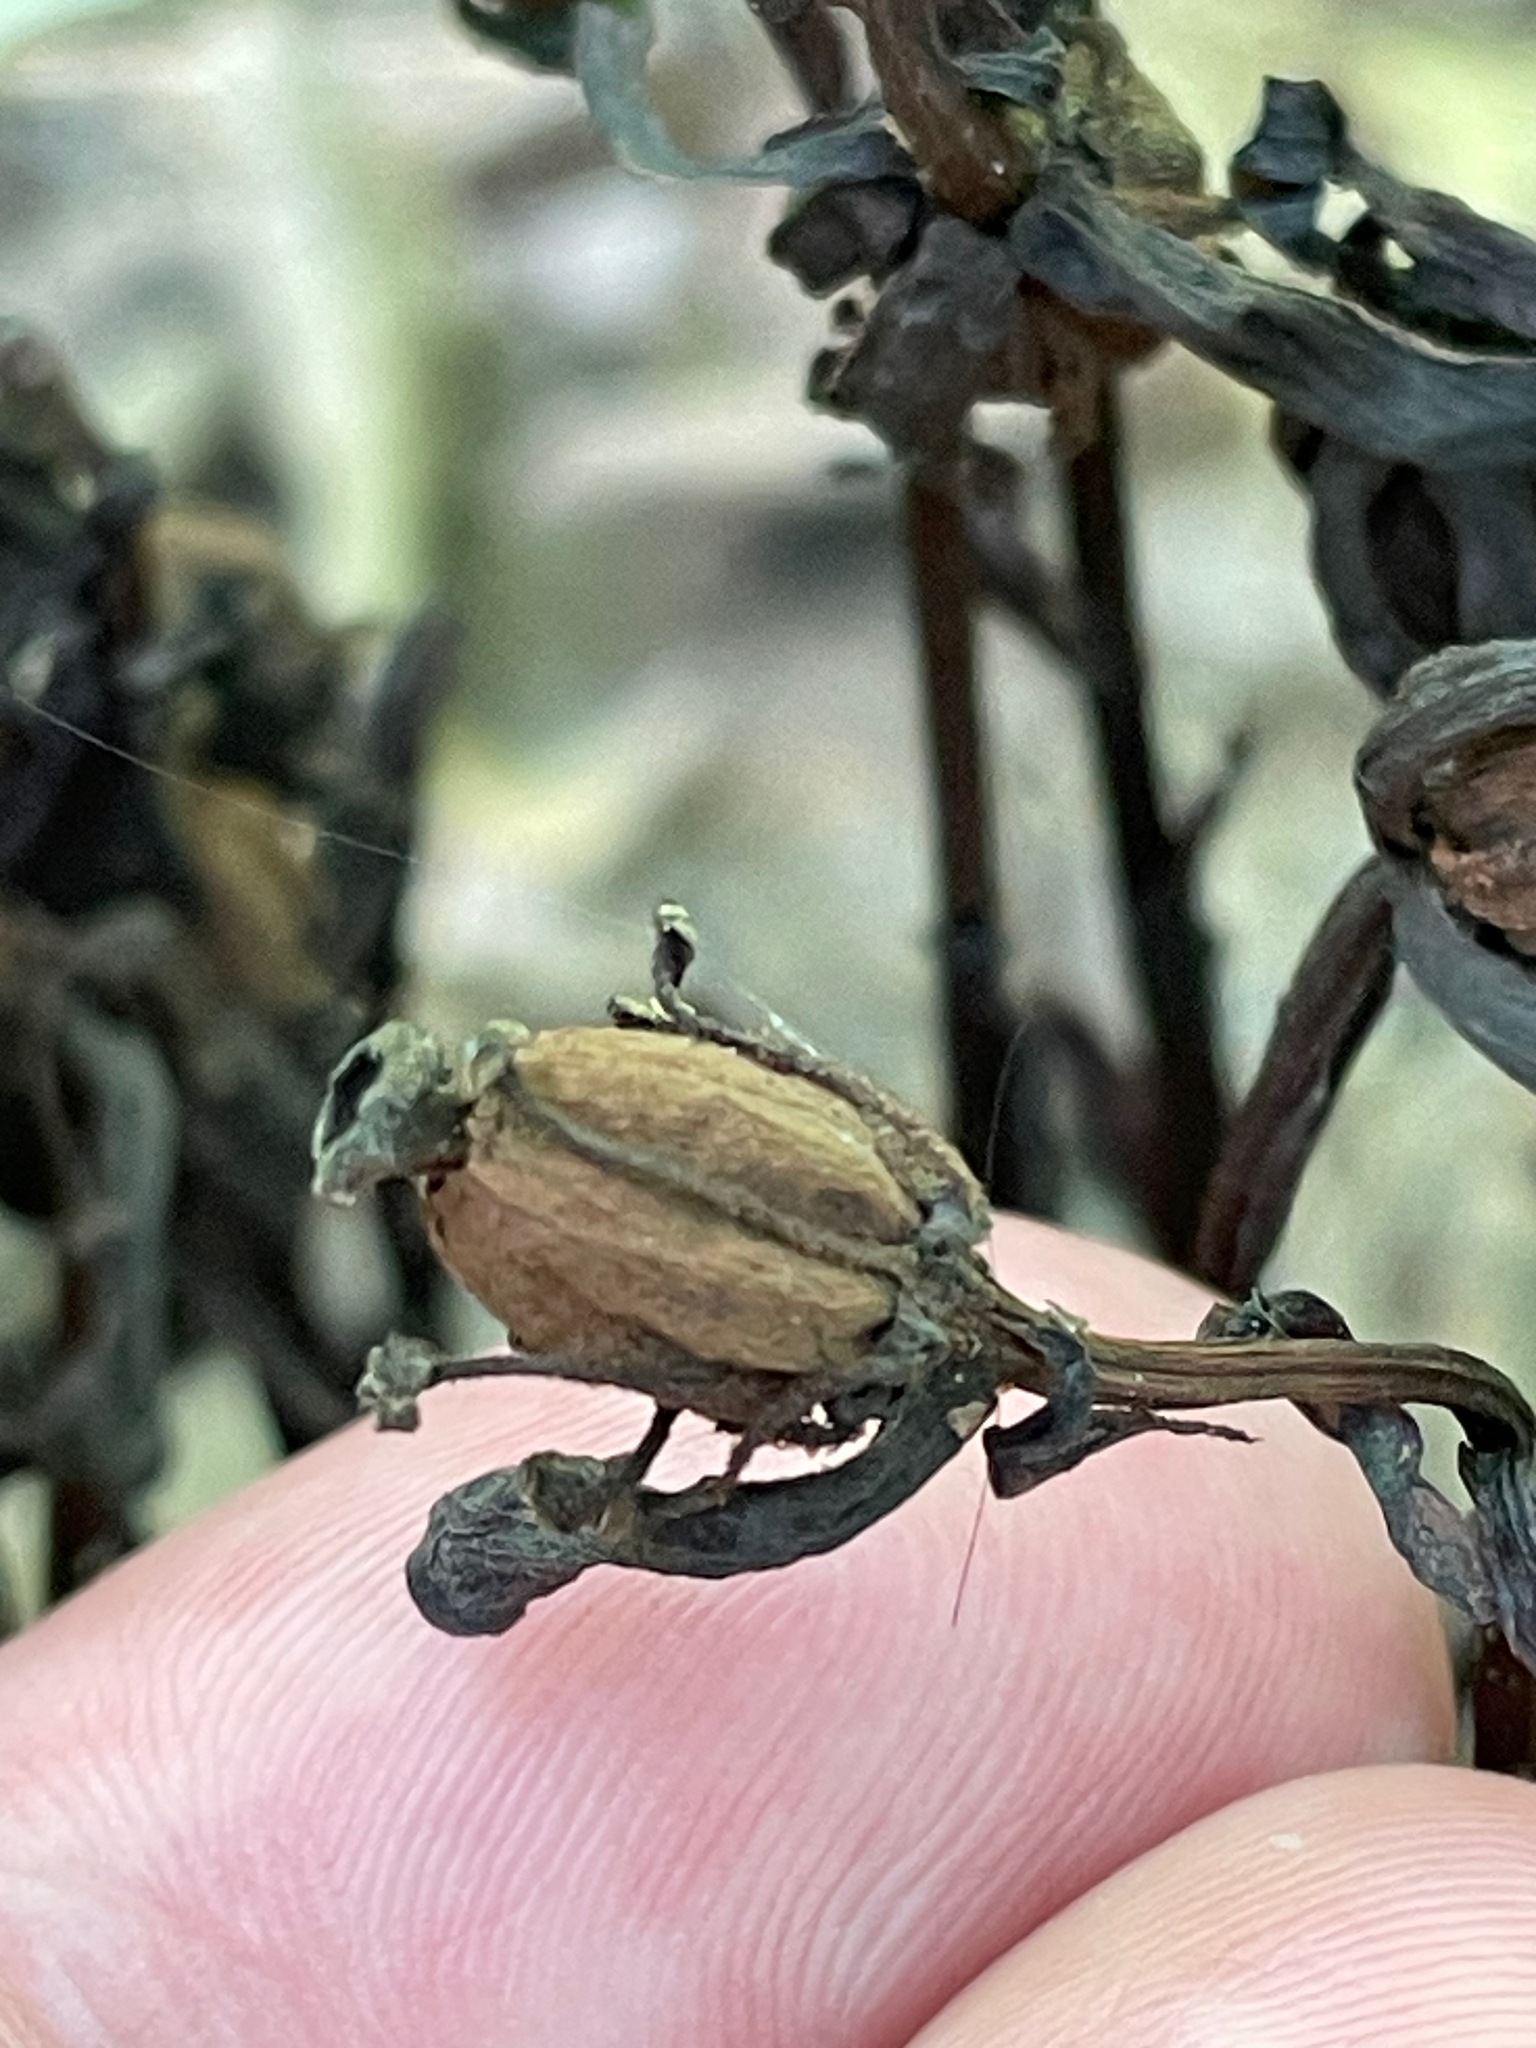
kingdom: Plantae
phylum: Tracheophyta
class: Magnoliopsida
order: Ericales
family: Ericaceae
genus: Monotropa
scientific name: Monotropa uniflora
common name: Convulsion root
